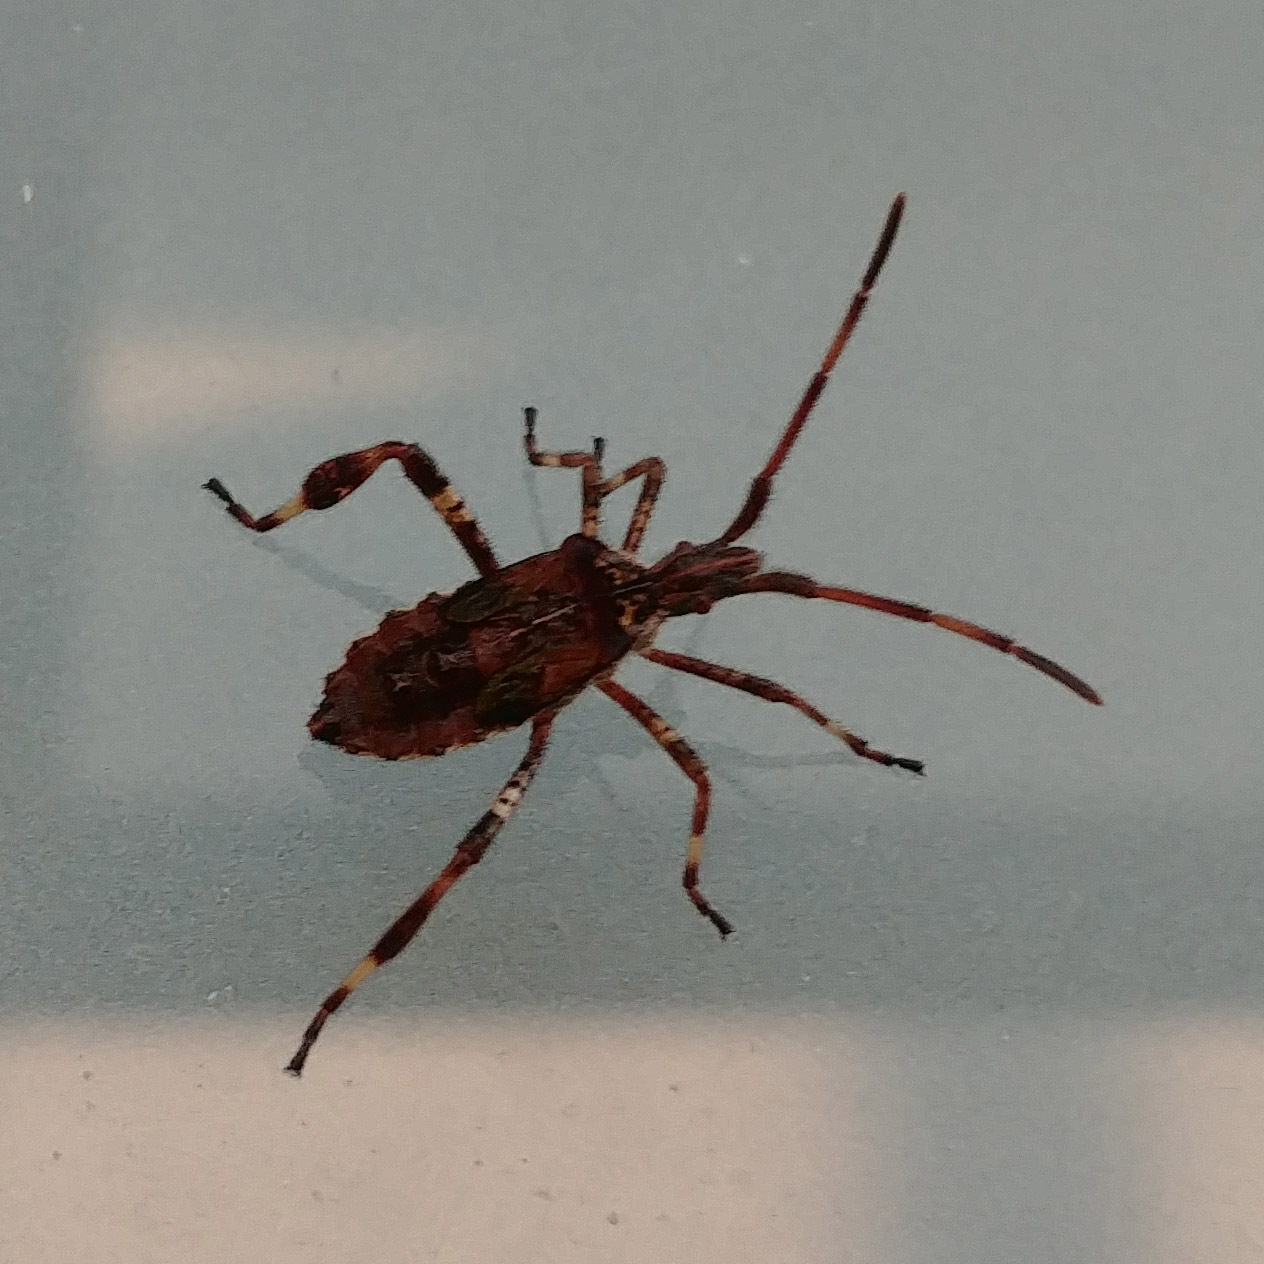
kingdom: Animalia
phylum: Arthropoda
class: Insecta
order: Hemiptera
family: Coreidae
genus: Leptoglossus
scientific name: Leptoglossus occidentalis
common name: Western conifer-seed bug
